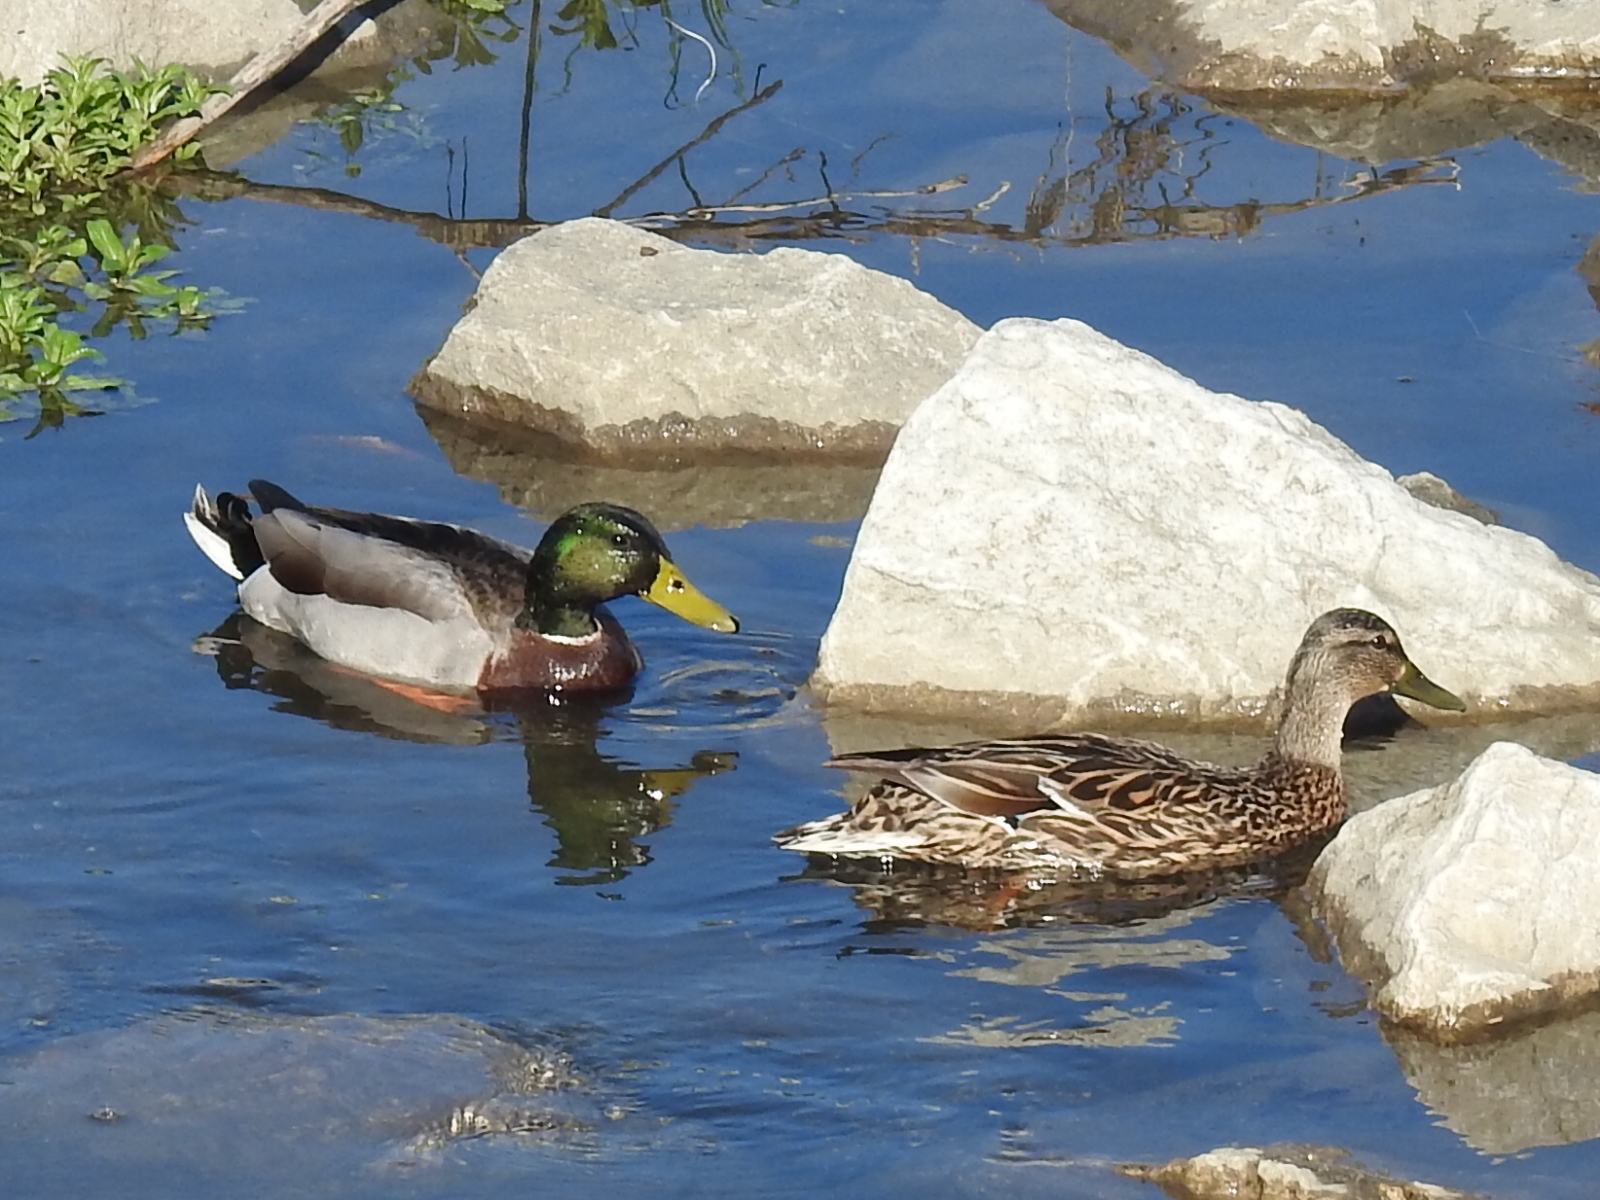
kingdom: Animalia
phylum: Chordata
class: Aves
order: Anseriformes
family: Anatidae
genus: Anas
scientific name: Anas platyrhynchos
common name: Mallard
